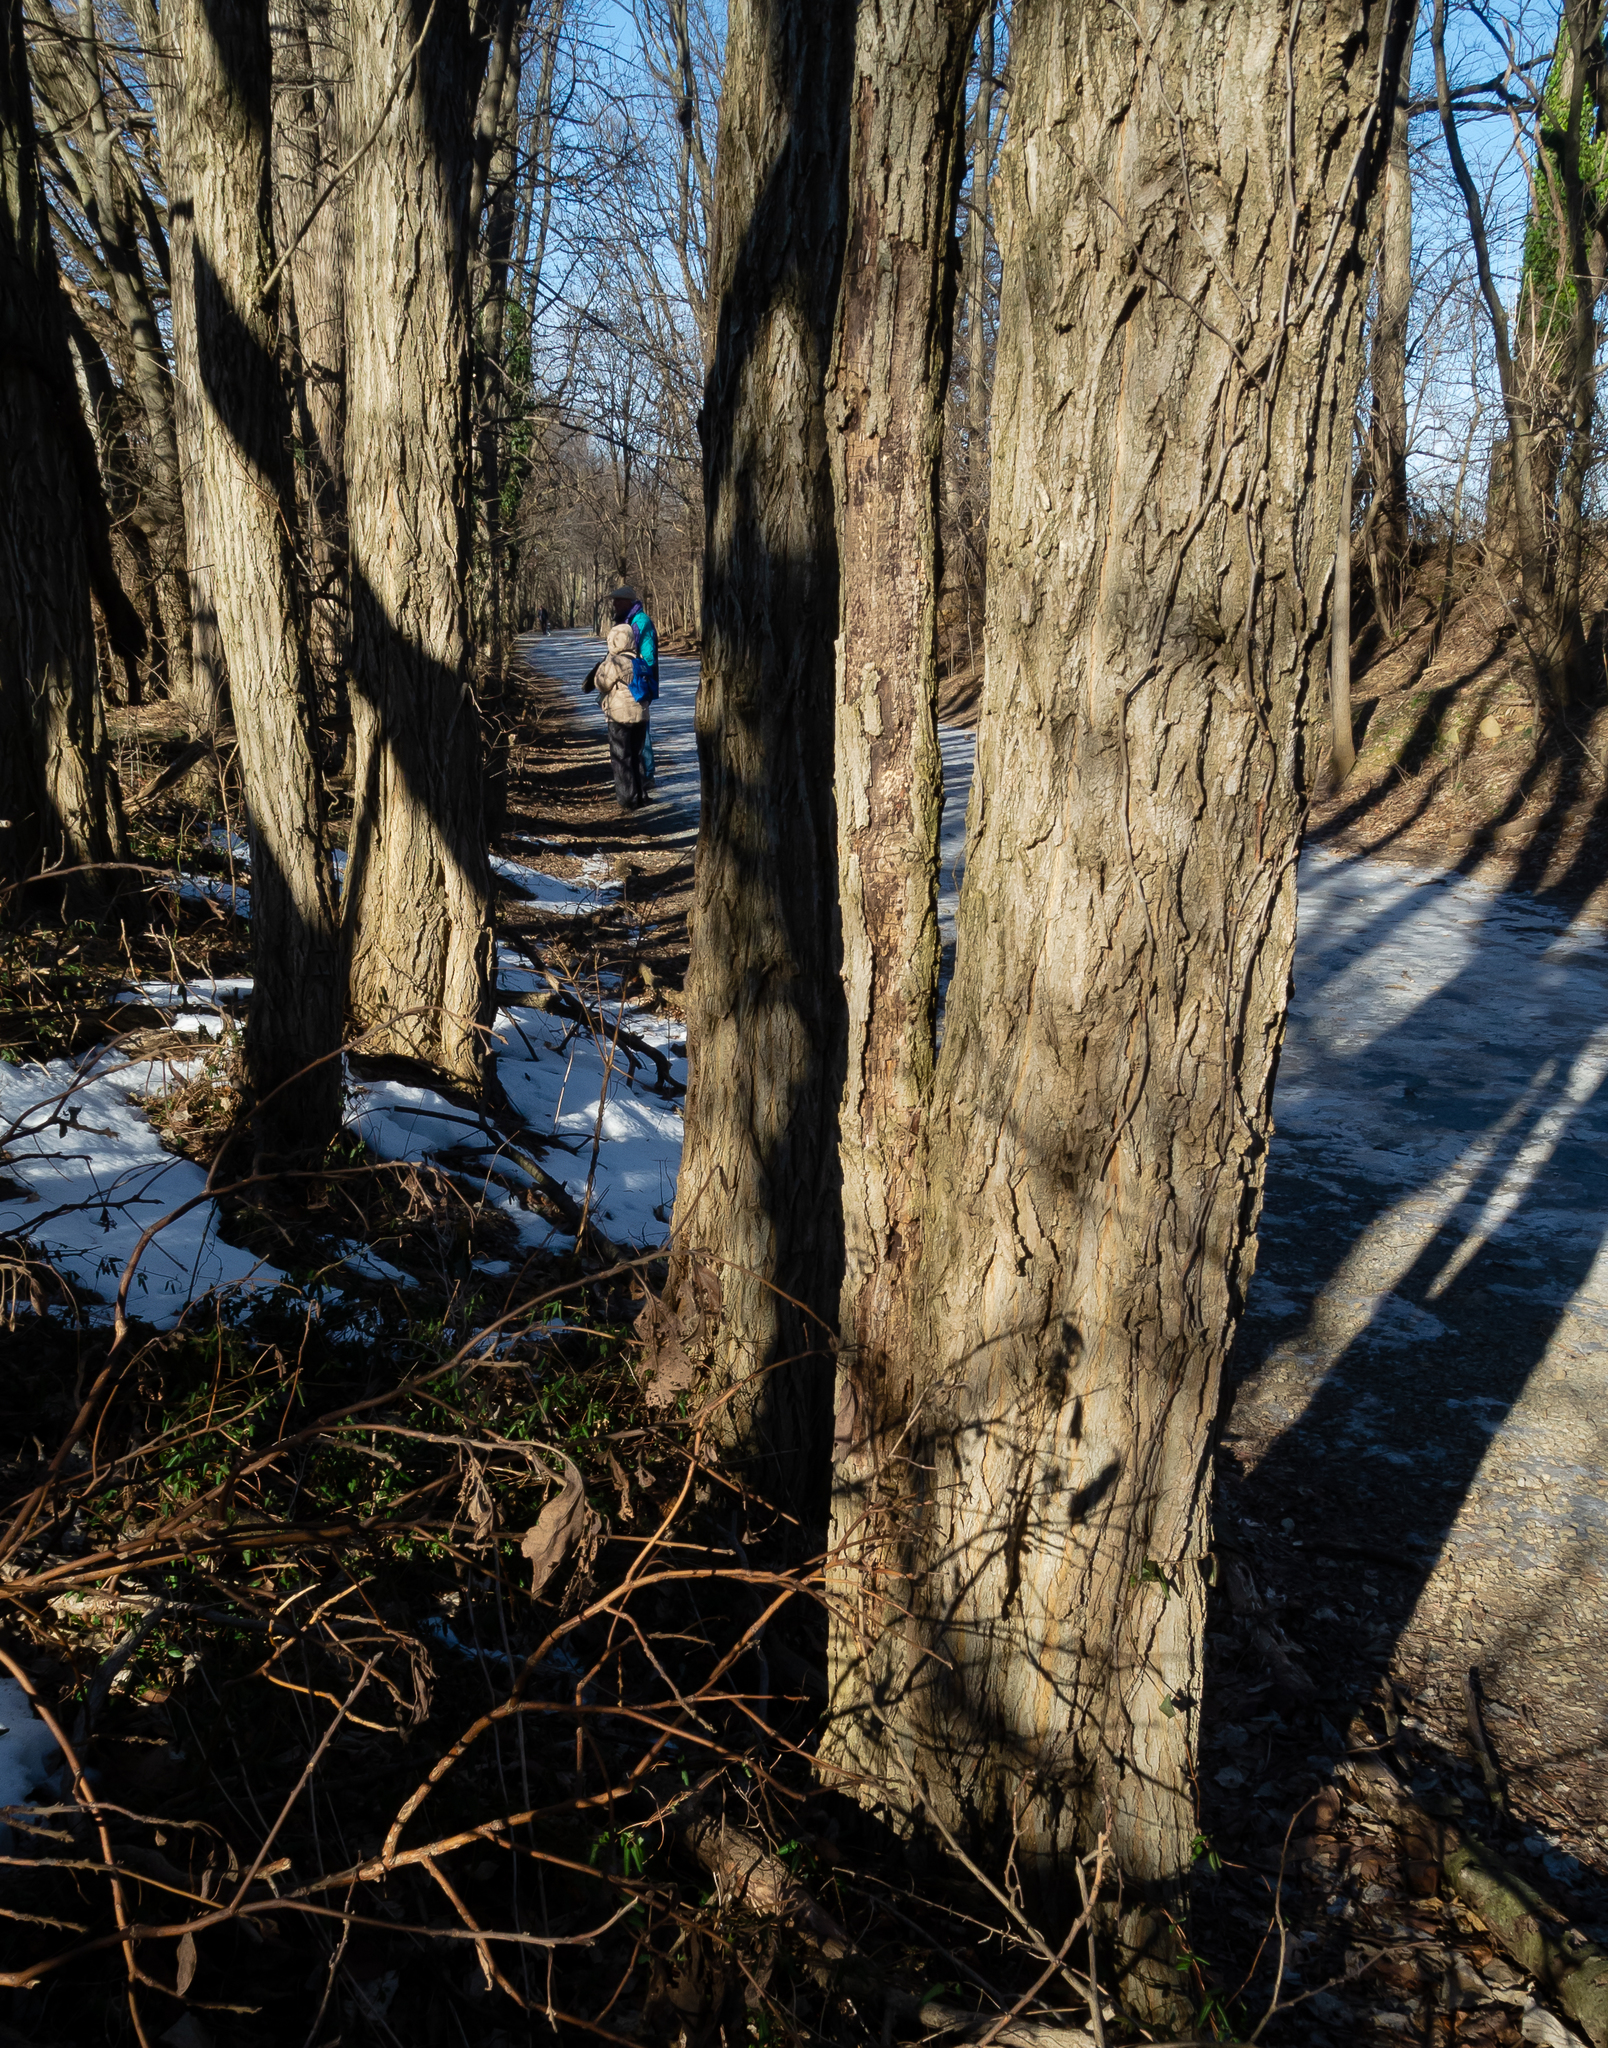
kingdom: Plantae
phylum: Tracheophyta
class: Magnoliopsida
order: Fabales
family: Fabaceae
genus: Robinia
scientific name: Robinia pseudoacacia
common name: Black locust
